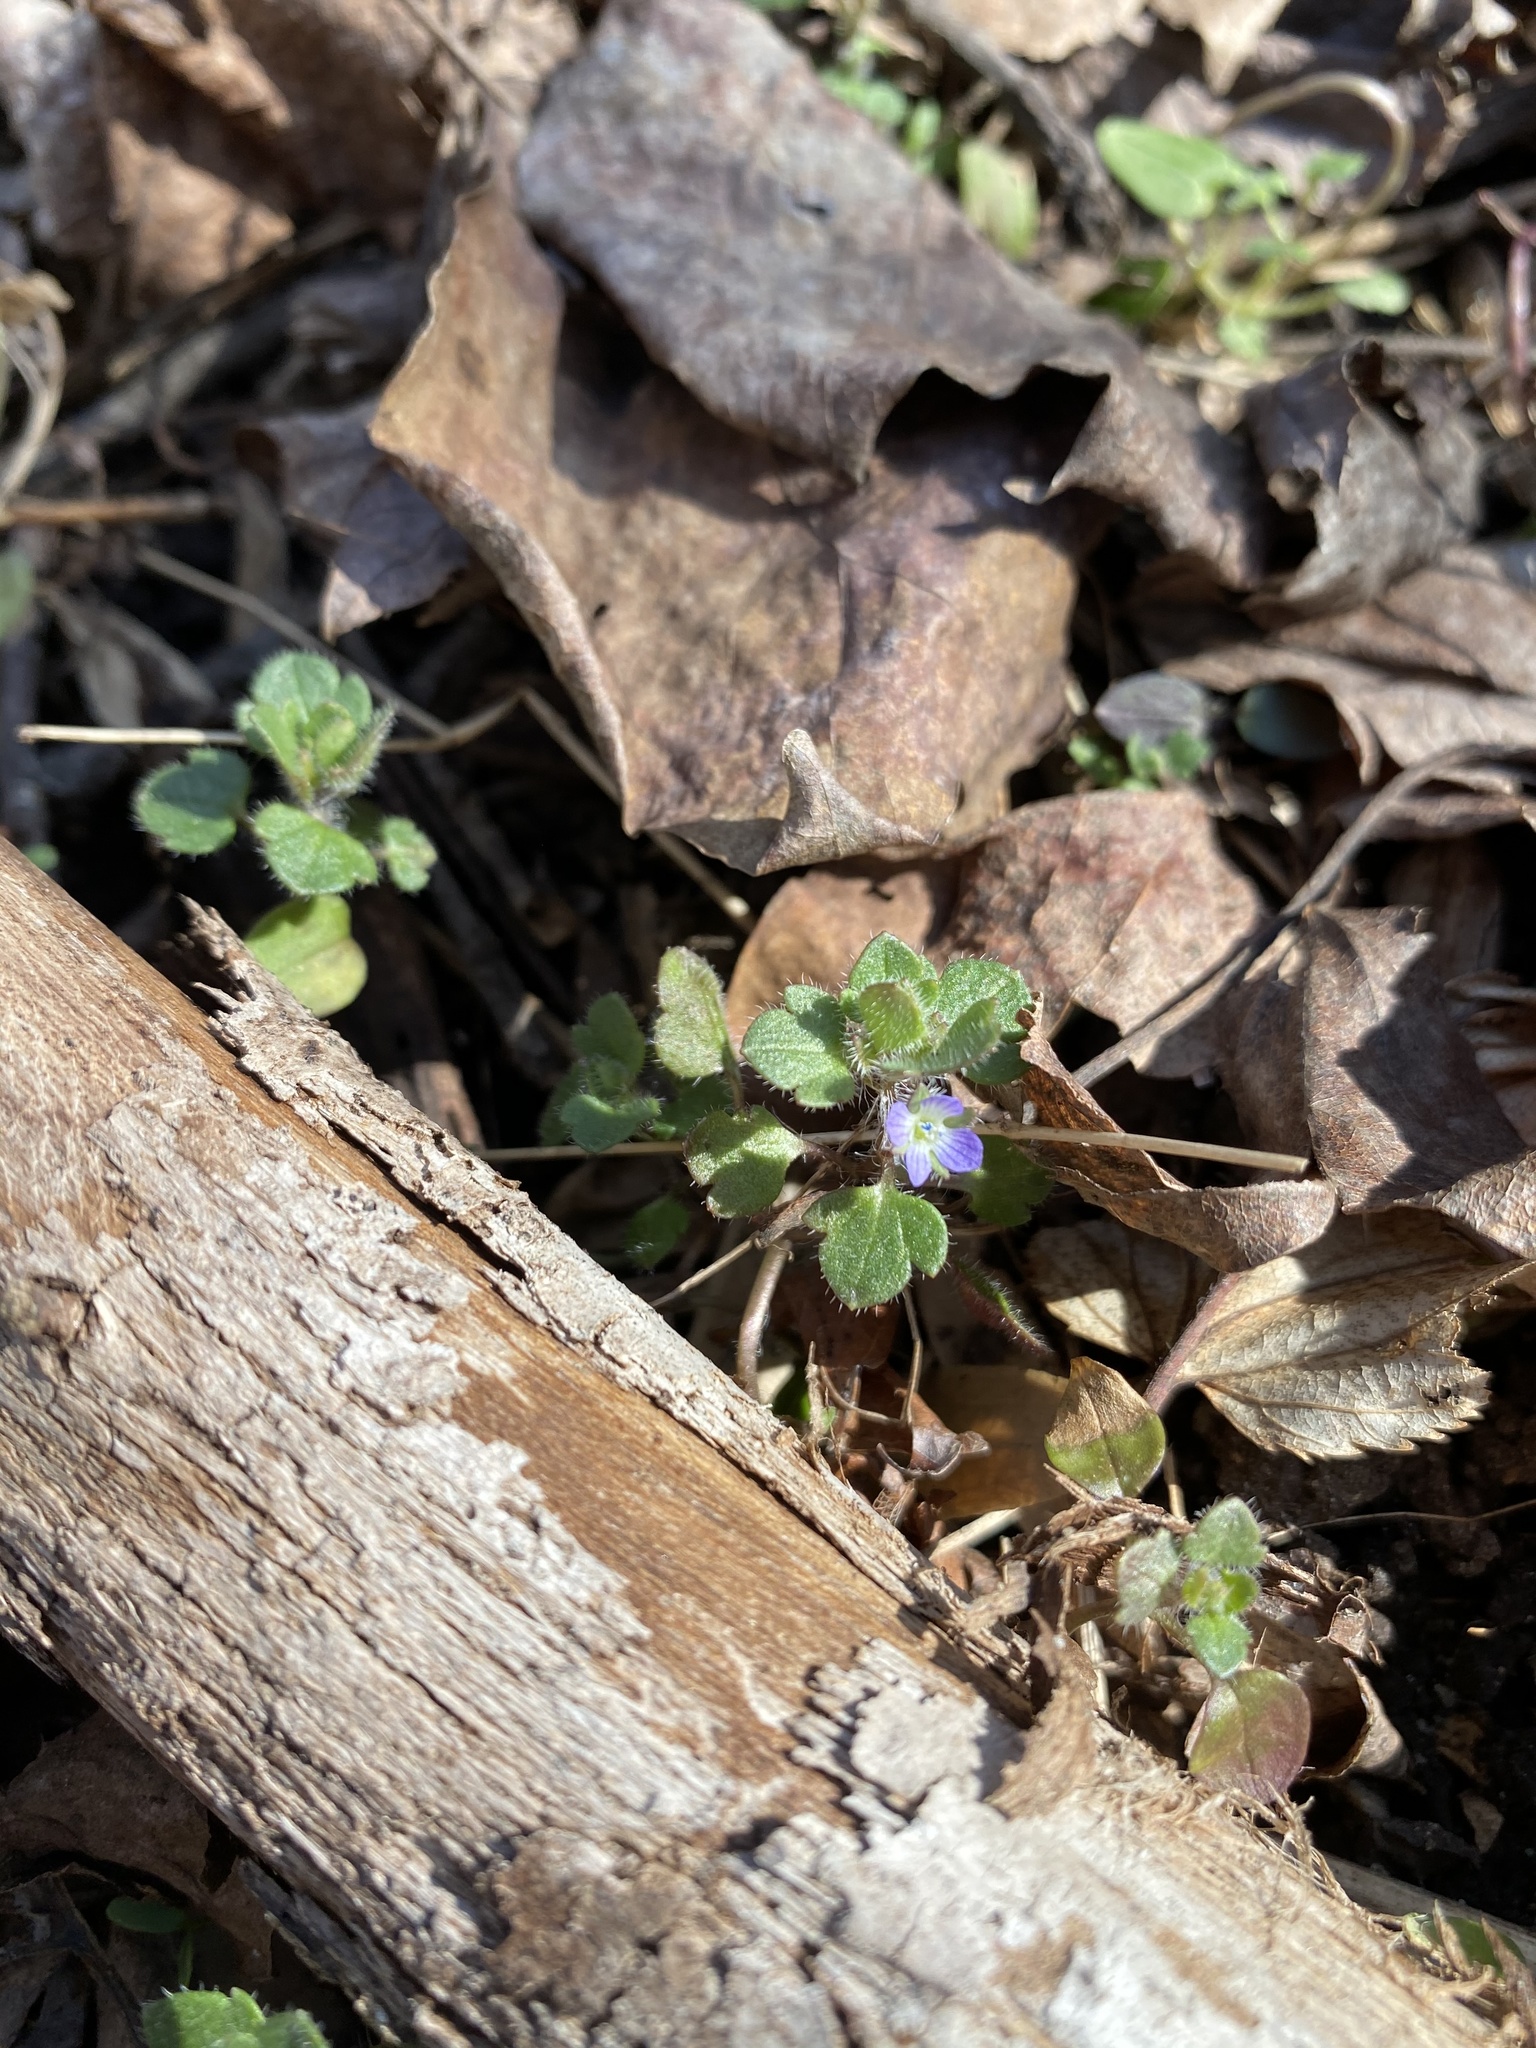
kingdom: Plantae
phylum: Tracheophyta
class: Magnoliopsida
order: Lamiales
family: Plantaginaceae
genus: Veronica
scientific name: Veronica hederifolia
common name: Ivy-leaved speedwell
